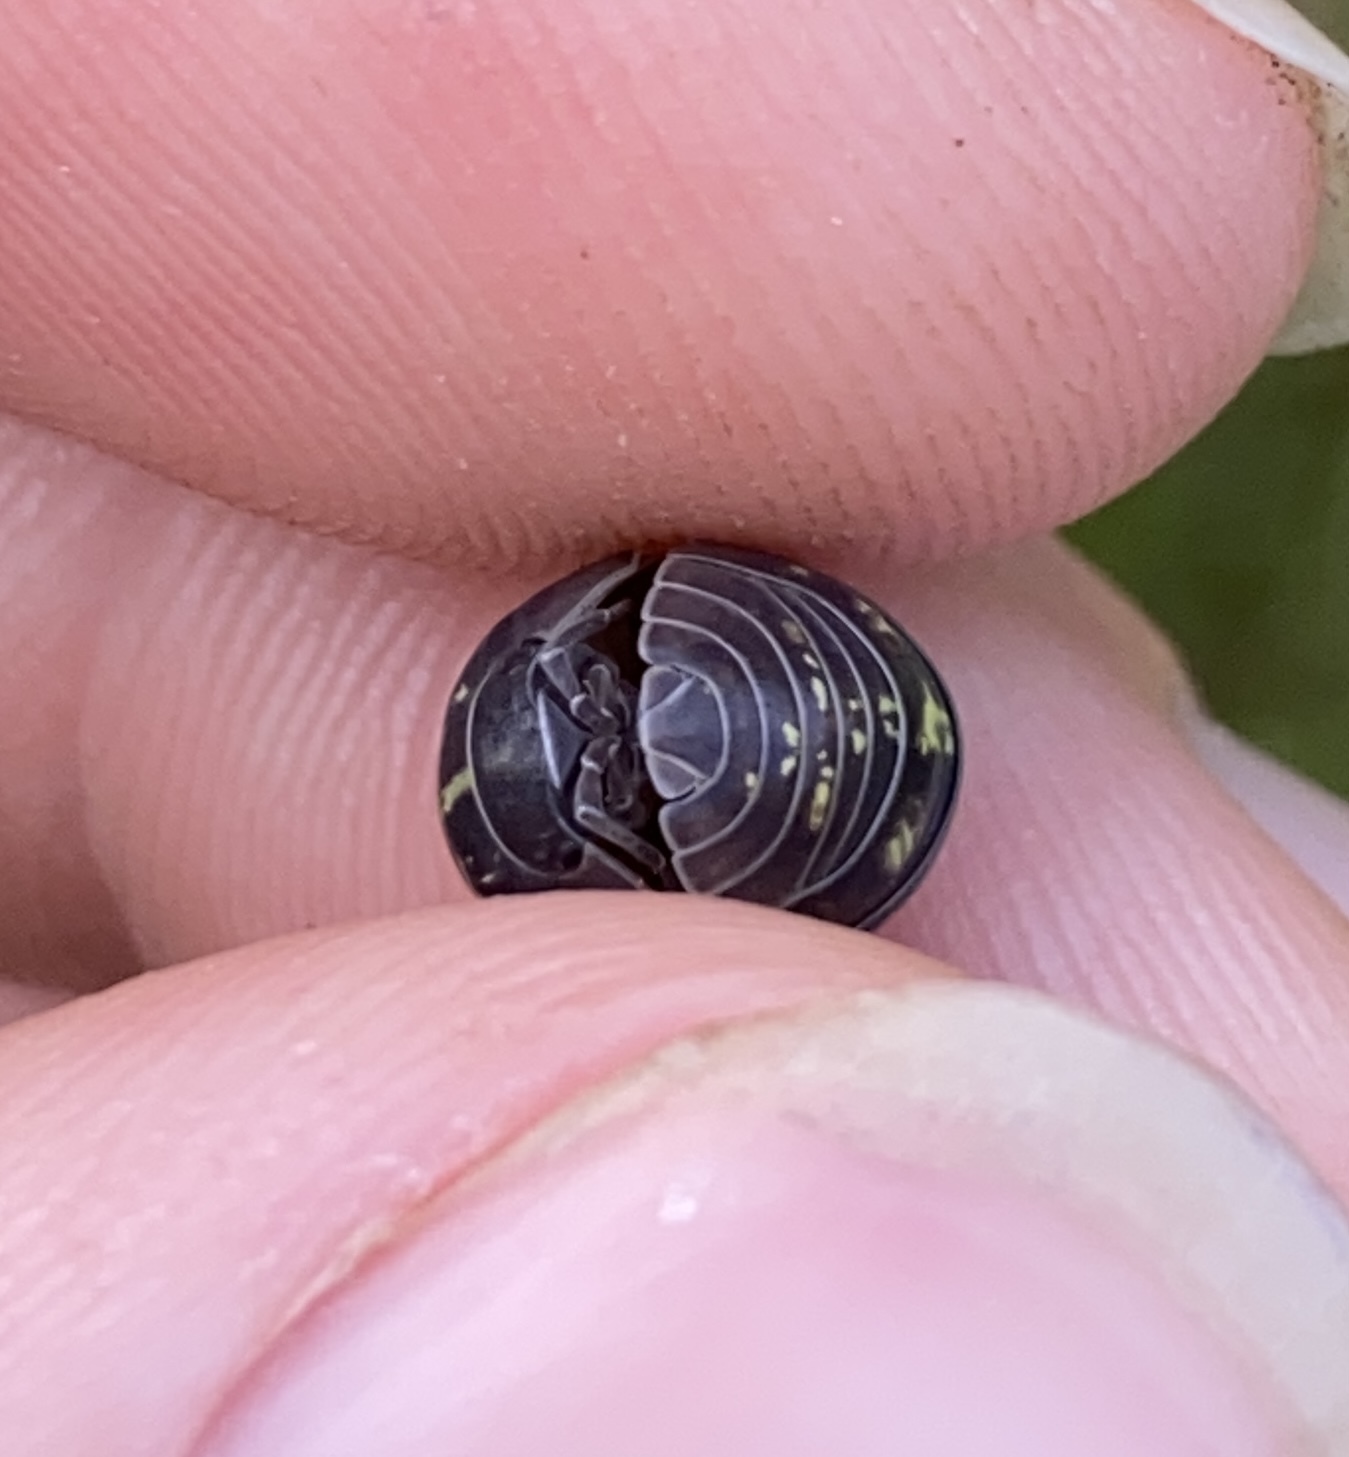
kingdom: Animalia
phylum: Arthropoda
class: Malacostraca
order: Isopoda
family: Armadillidiidae
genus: Armadillidium
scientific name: Armadillidium vulgare
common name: Common pill woodlouse
